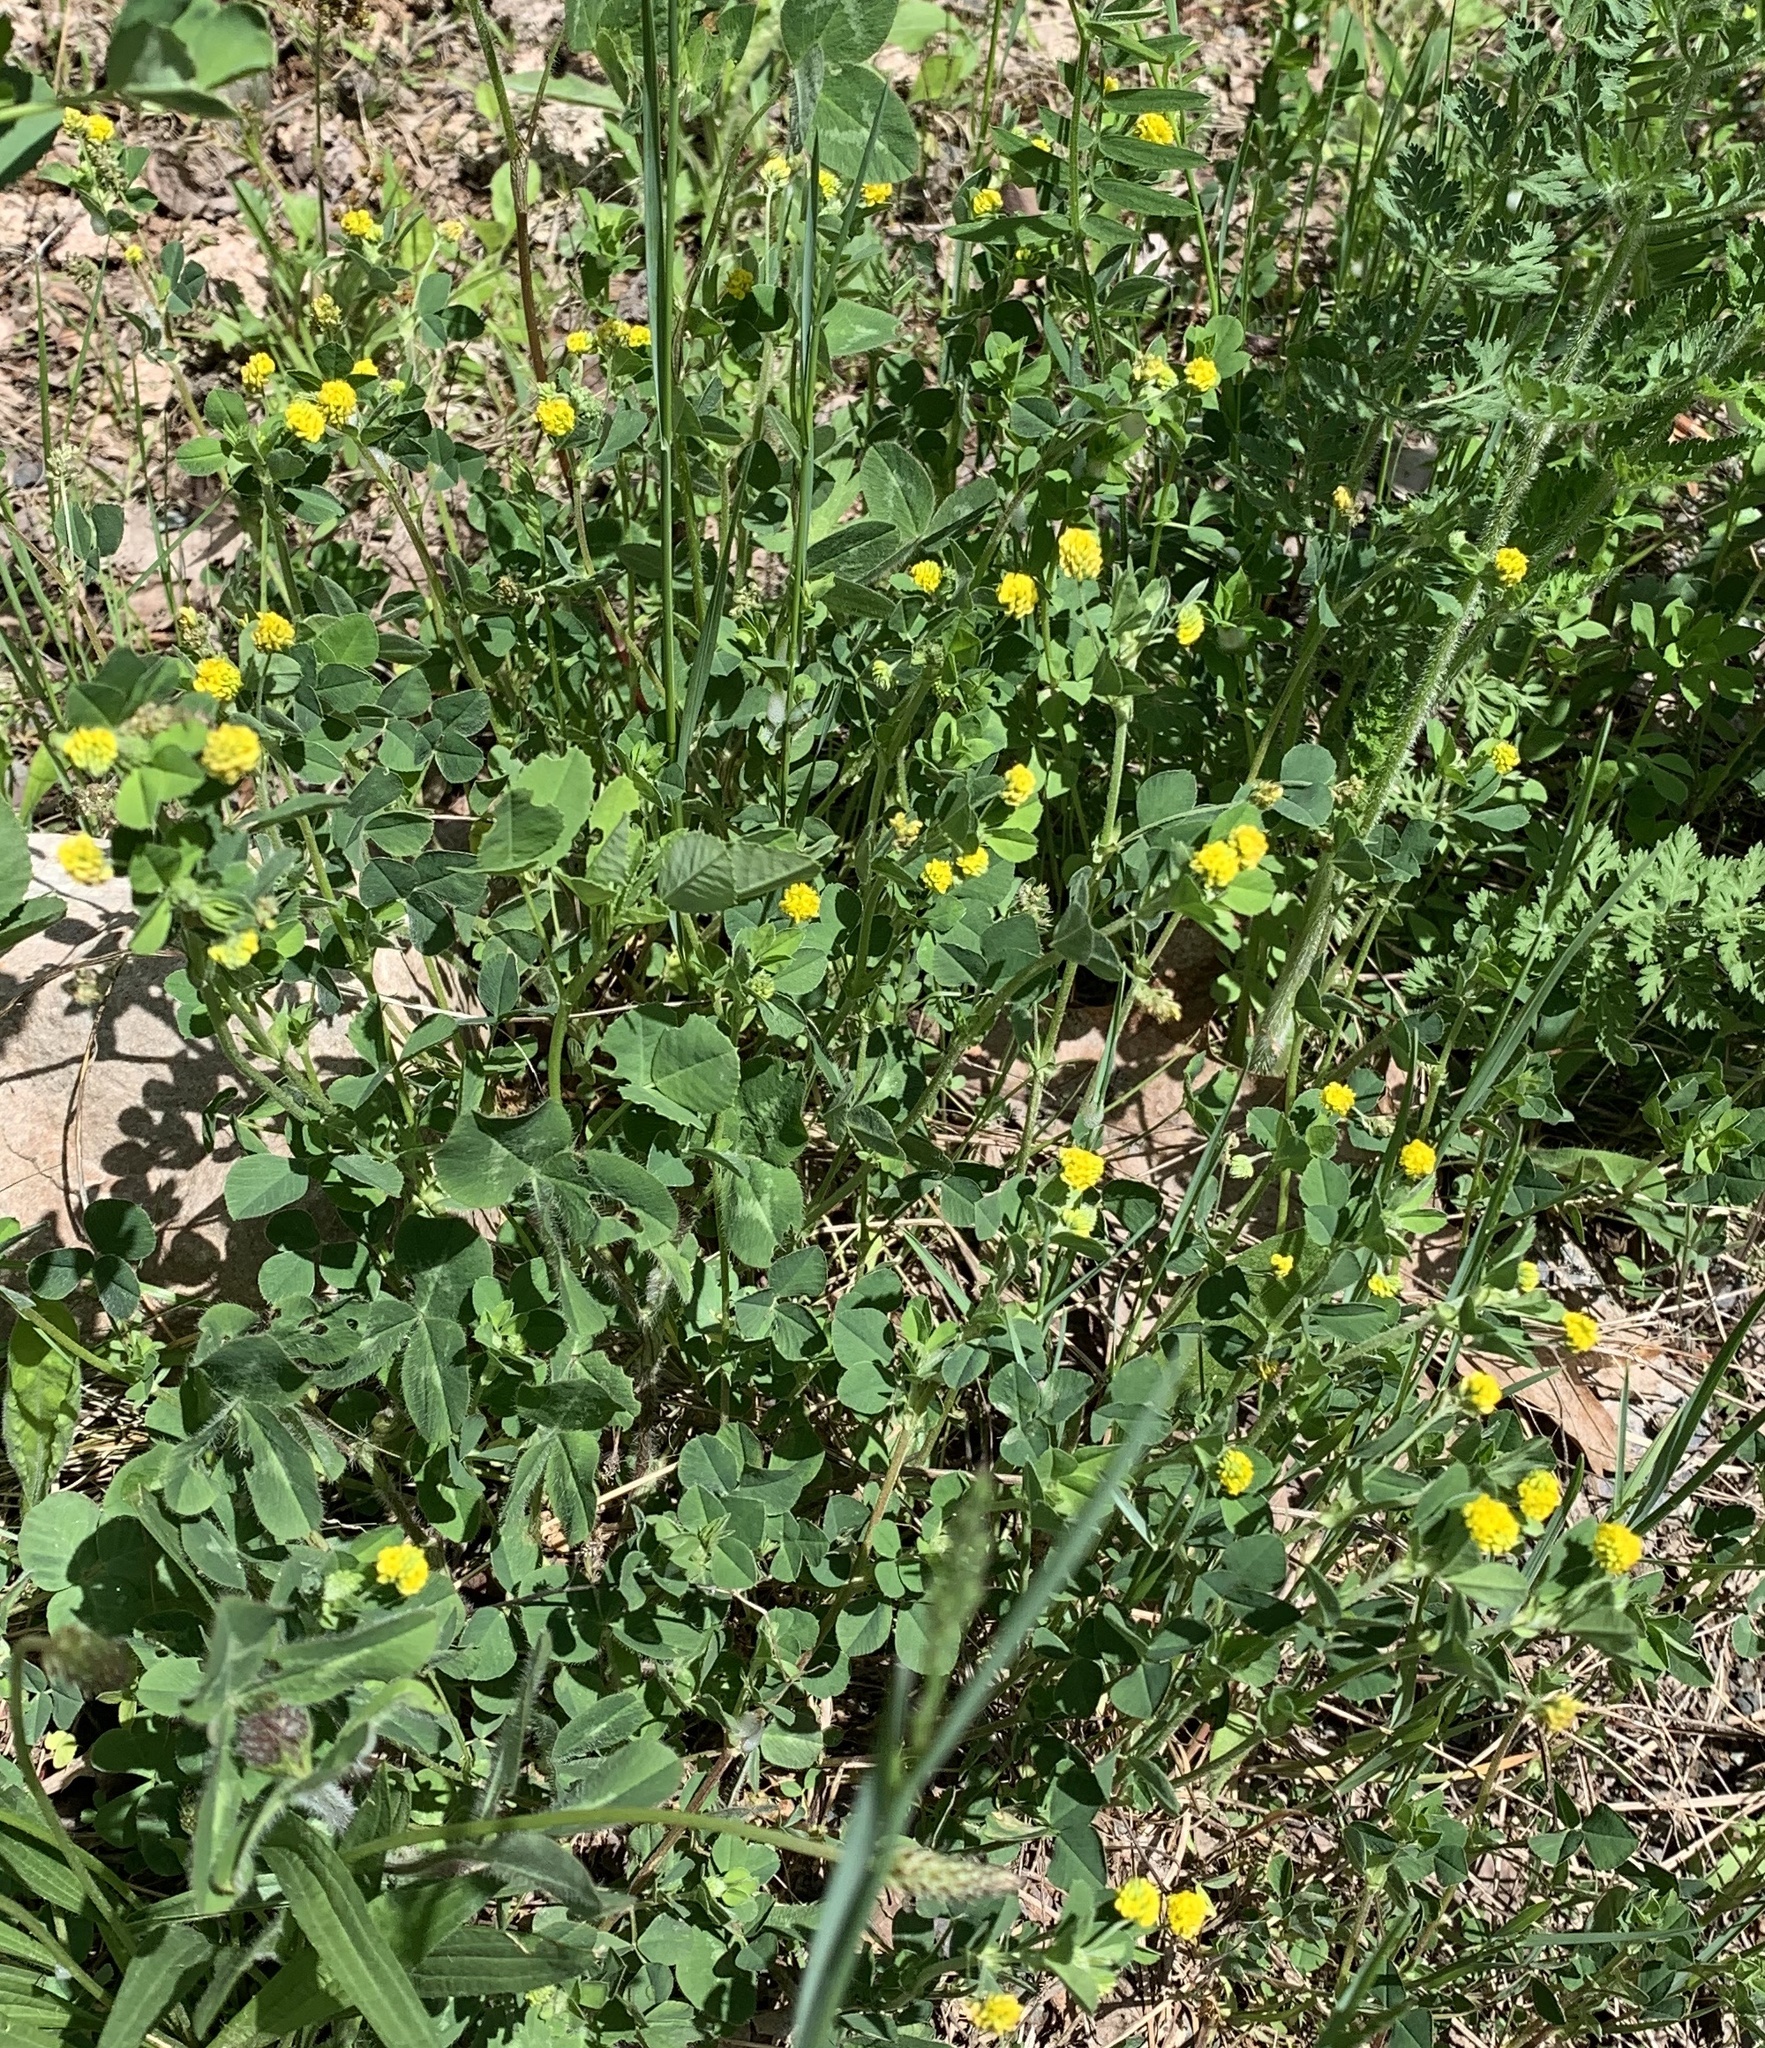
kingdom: Plantae
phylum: Tracheophyta
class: Magnoliopsida
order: Fabales
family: Fabaceae
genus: Medicago
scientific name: Medicago lupulina
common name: Black medick
